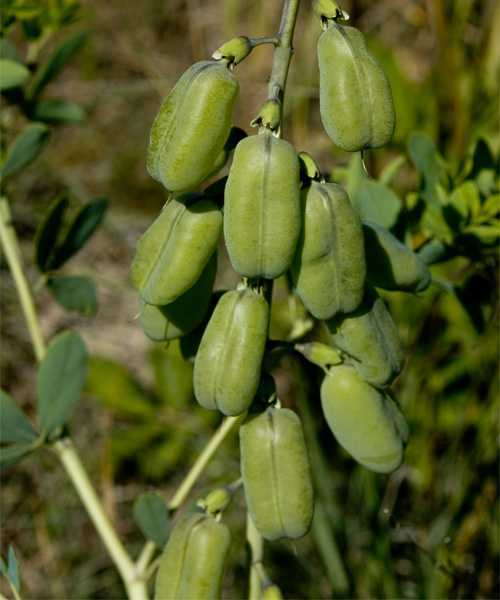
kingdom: Plantae
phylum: Tracheophyta
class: Magnoliopsida
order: Fabales
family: Fabaceae
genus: Baptisia
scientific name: Baptisia alba
